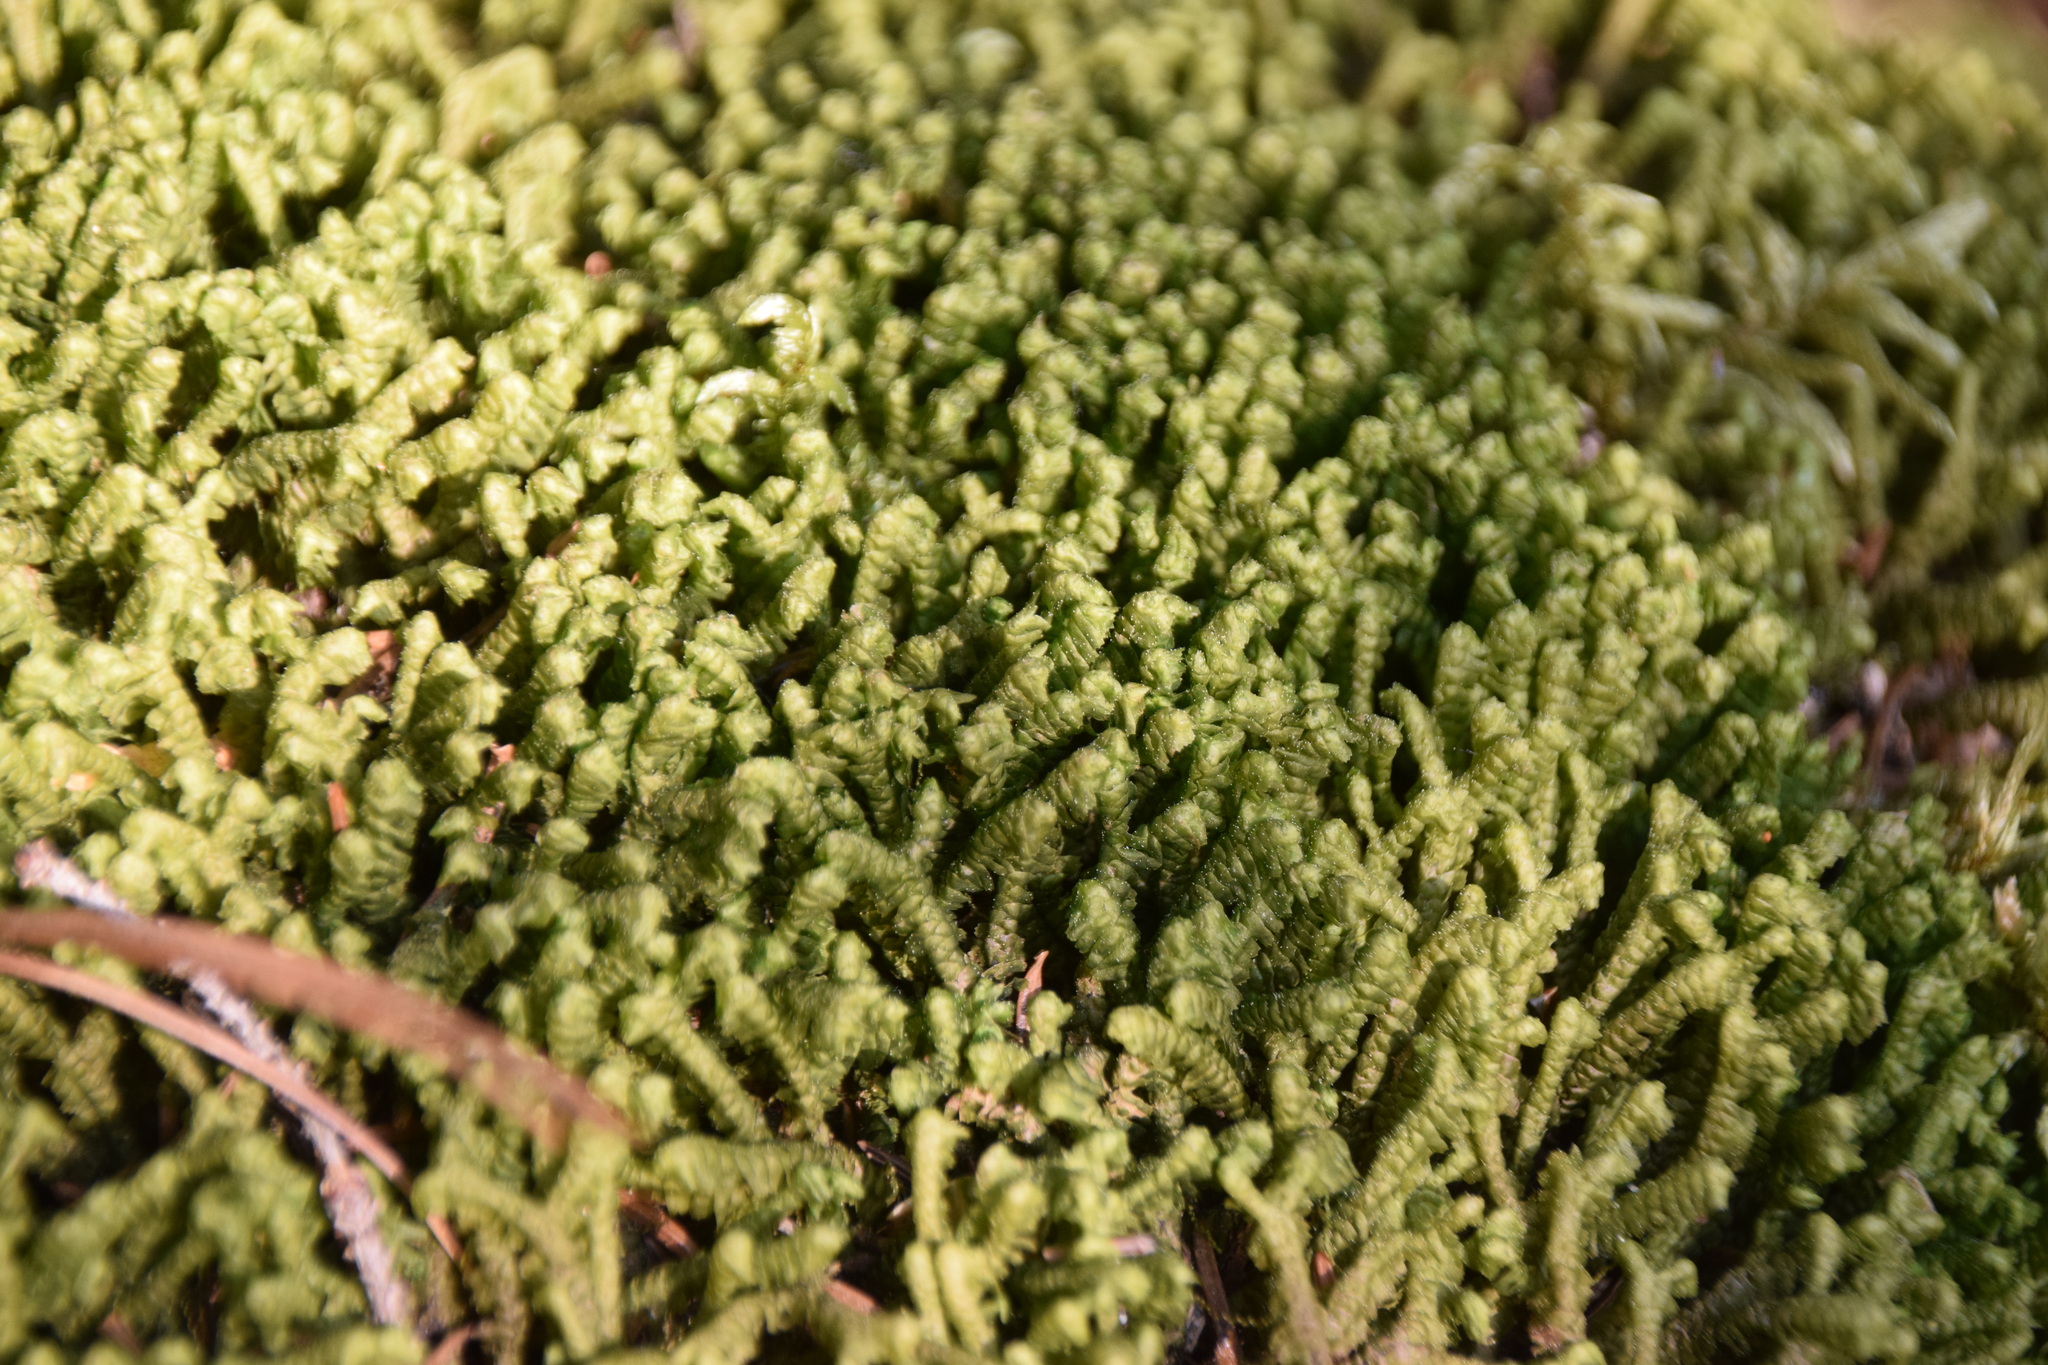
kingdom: Plantae
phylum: Marchantiophyta
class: Jungermanniopsida
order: Jungermanniales
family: Lepidoziaceae
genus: Bazzania
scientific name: Bazzania trilobata
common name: Three-lobed whipwort
